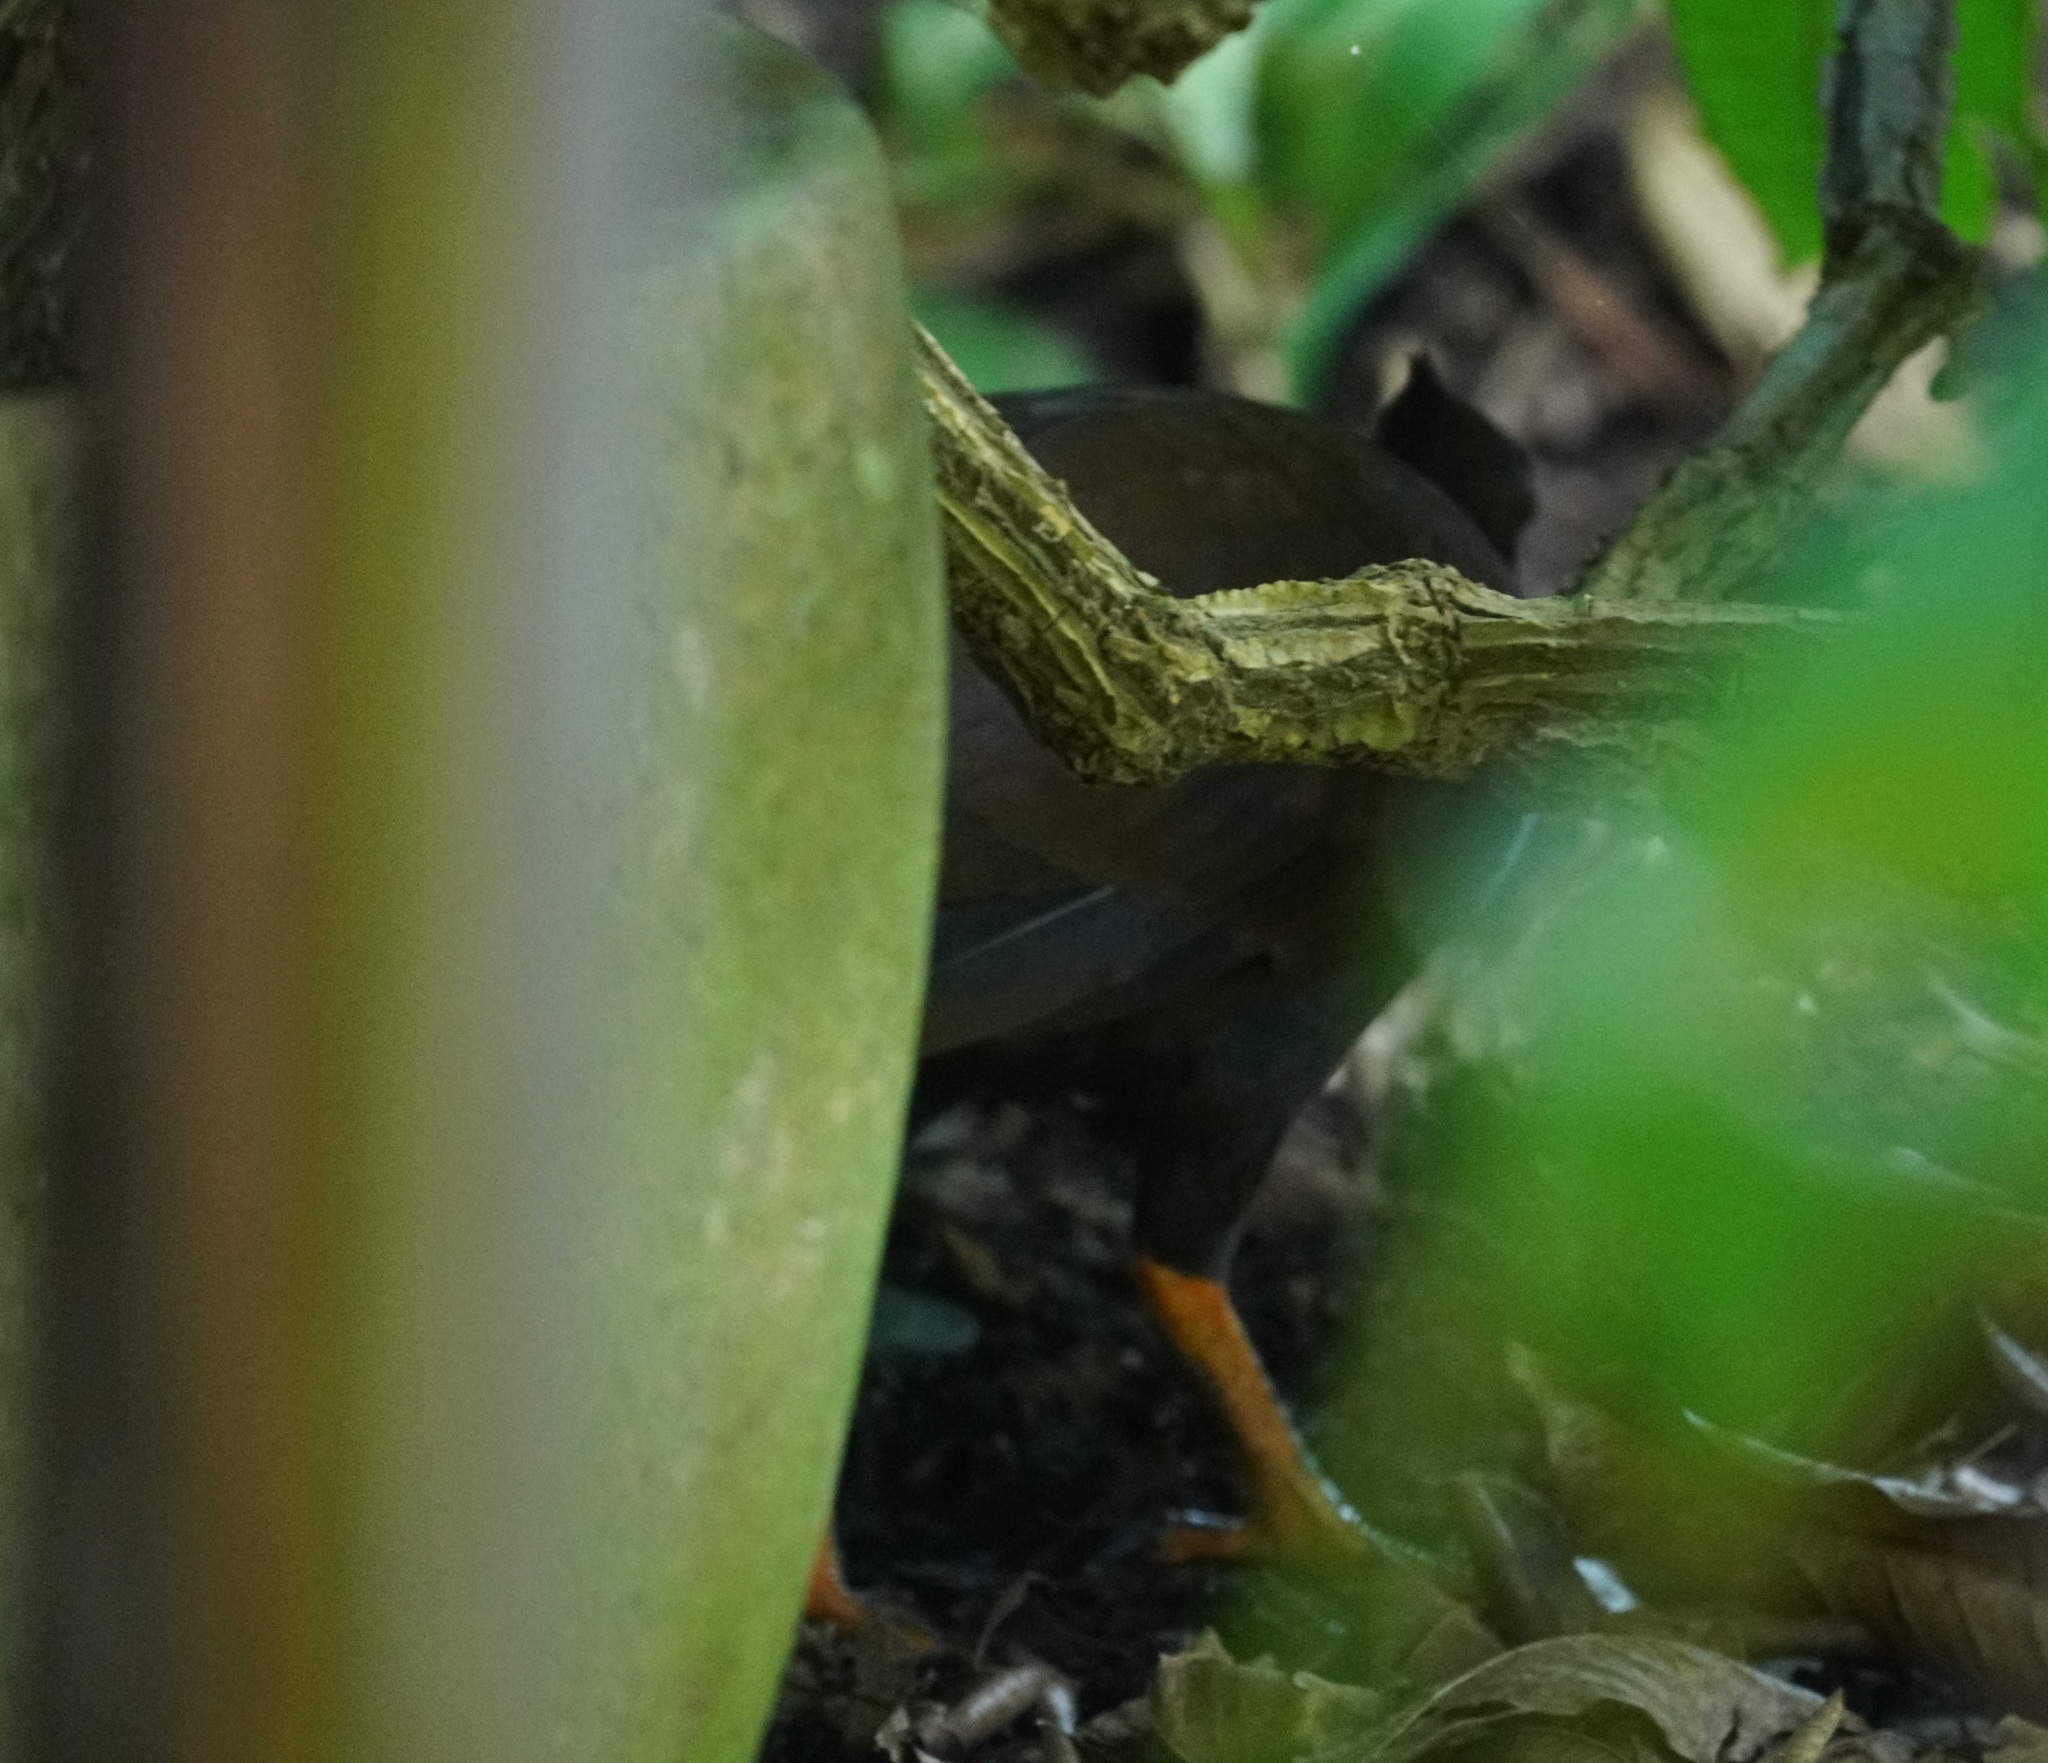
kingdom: Animalia
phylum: Chordata
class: Aves
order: Galliformes
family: Megapodiidae
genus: Megapodius
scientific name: Megapodius reinwardt
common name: Orange-footed scrubfowl
